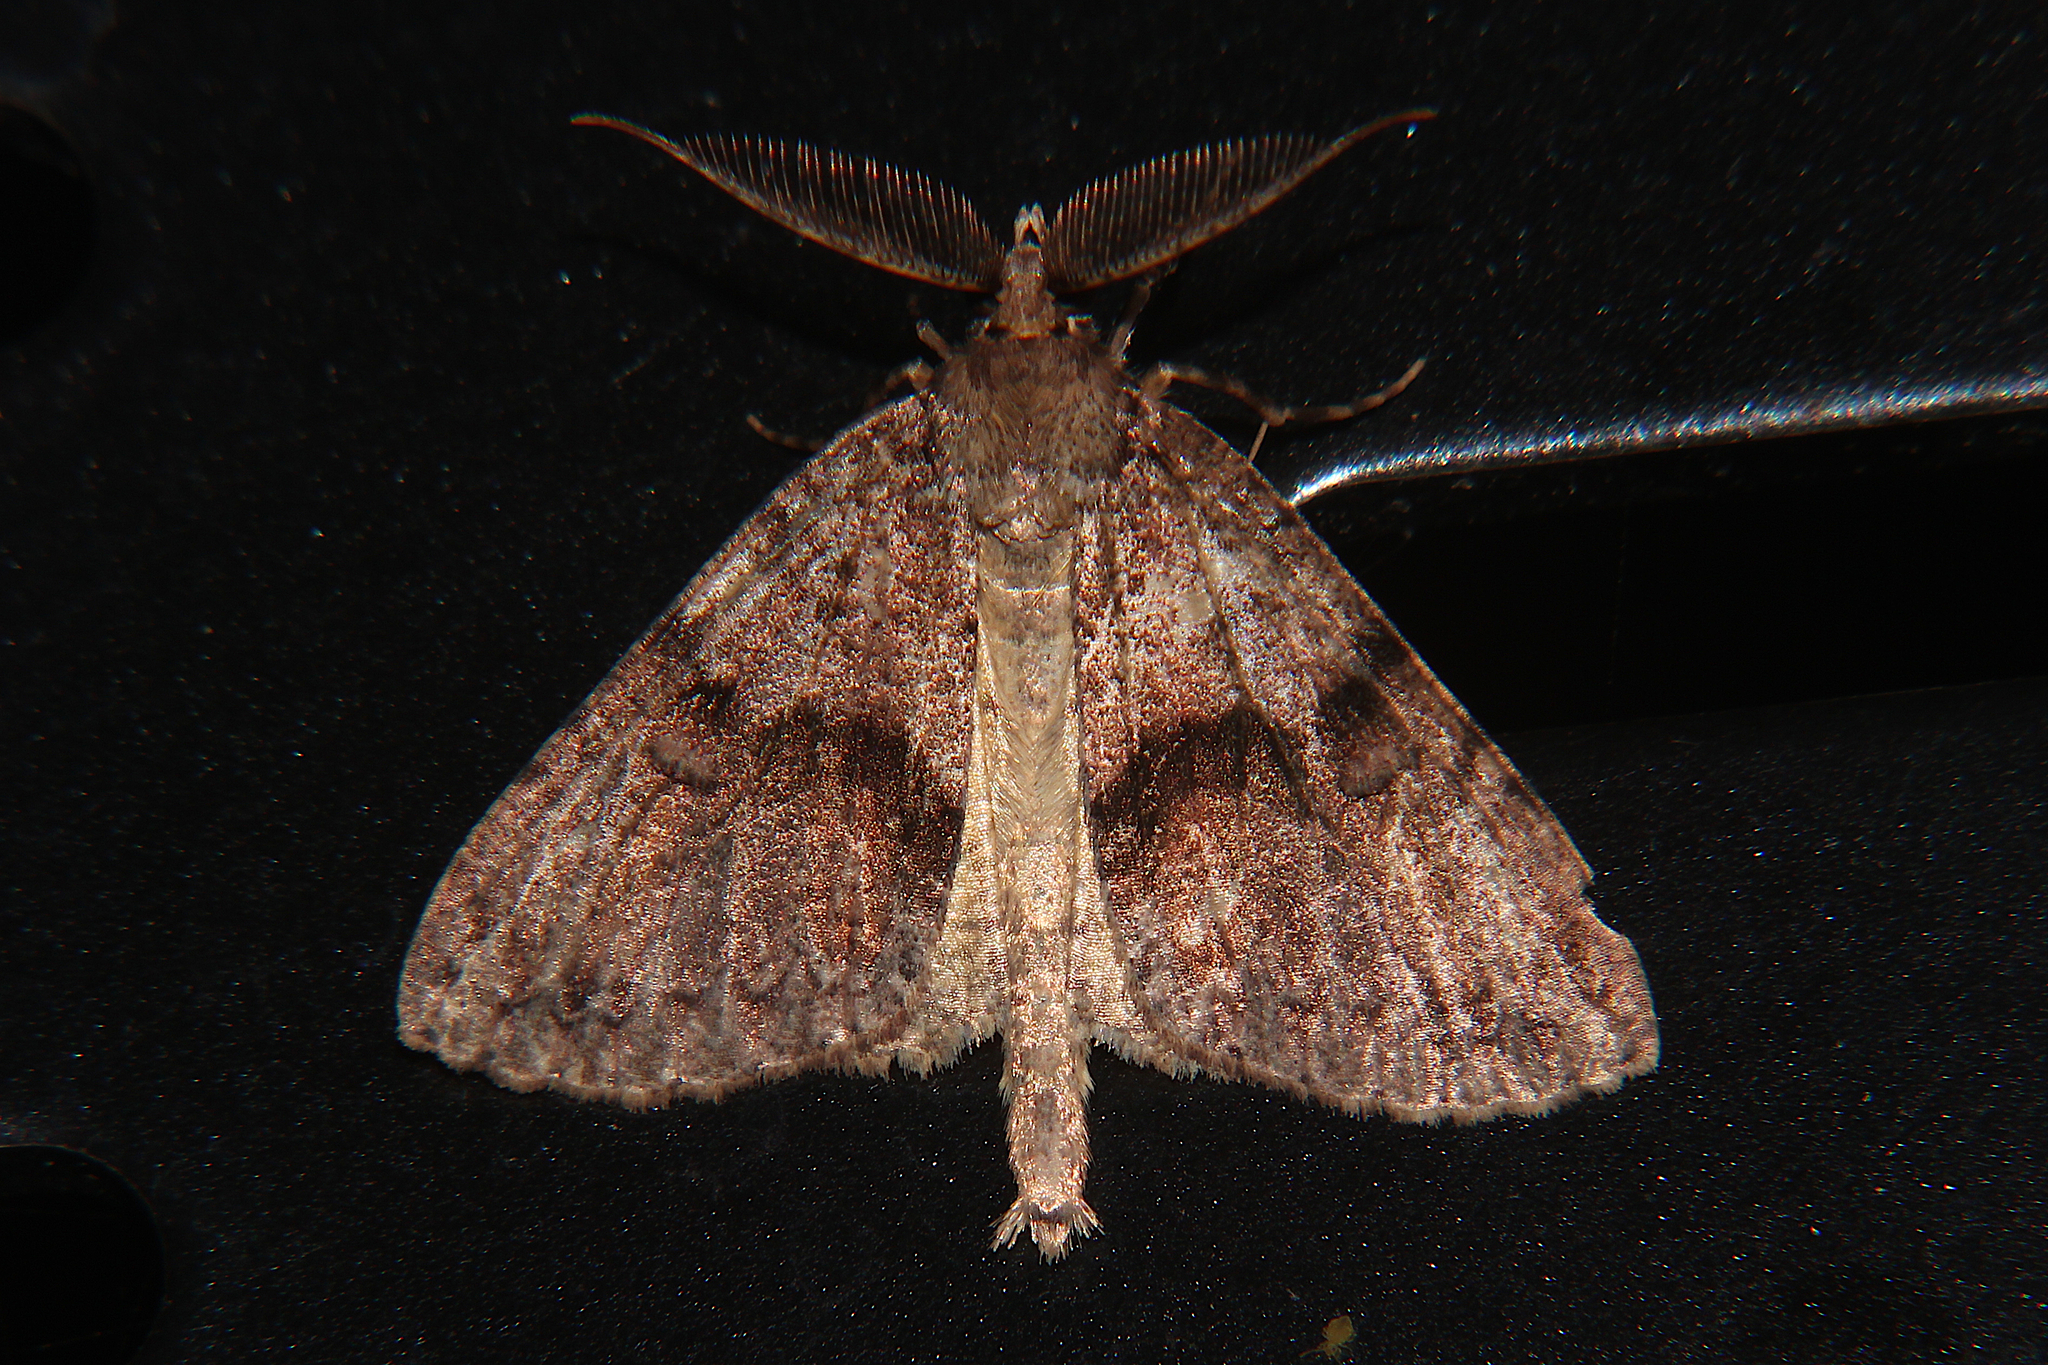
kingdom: Animalia
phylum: Arthropoda
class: Insecta
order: Lepidoptera
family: Geometridae
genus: Pseudocoremia
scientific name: Pseudocoremia suavis
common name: Common forest looper
